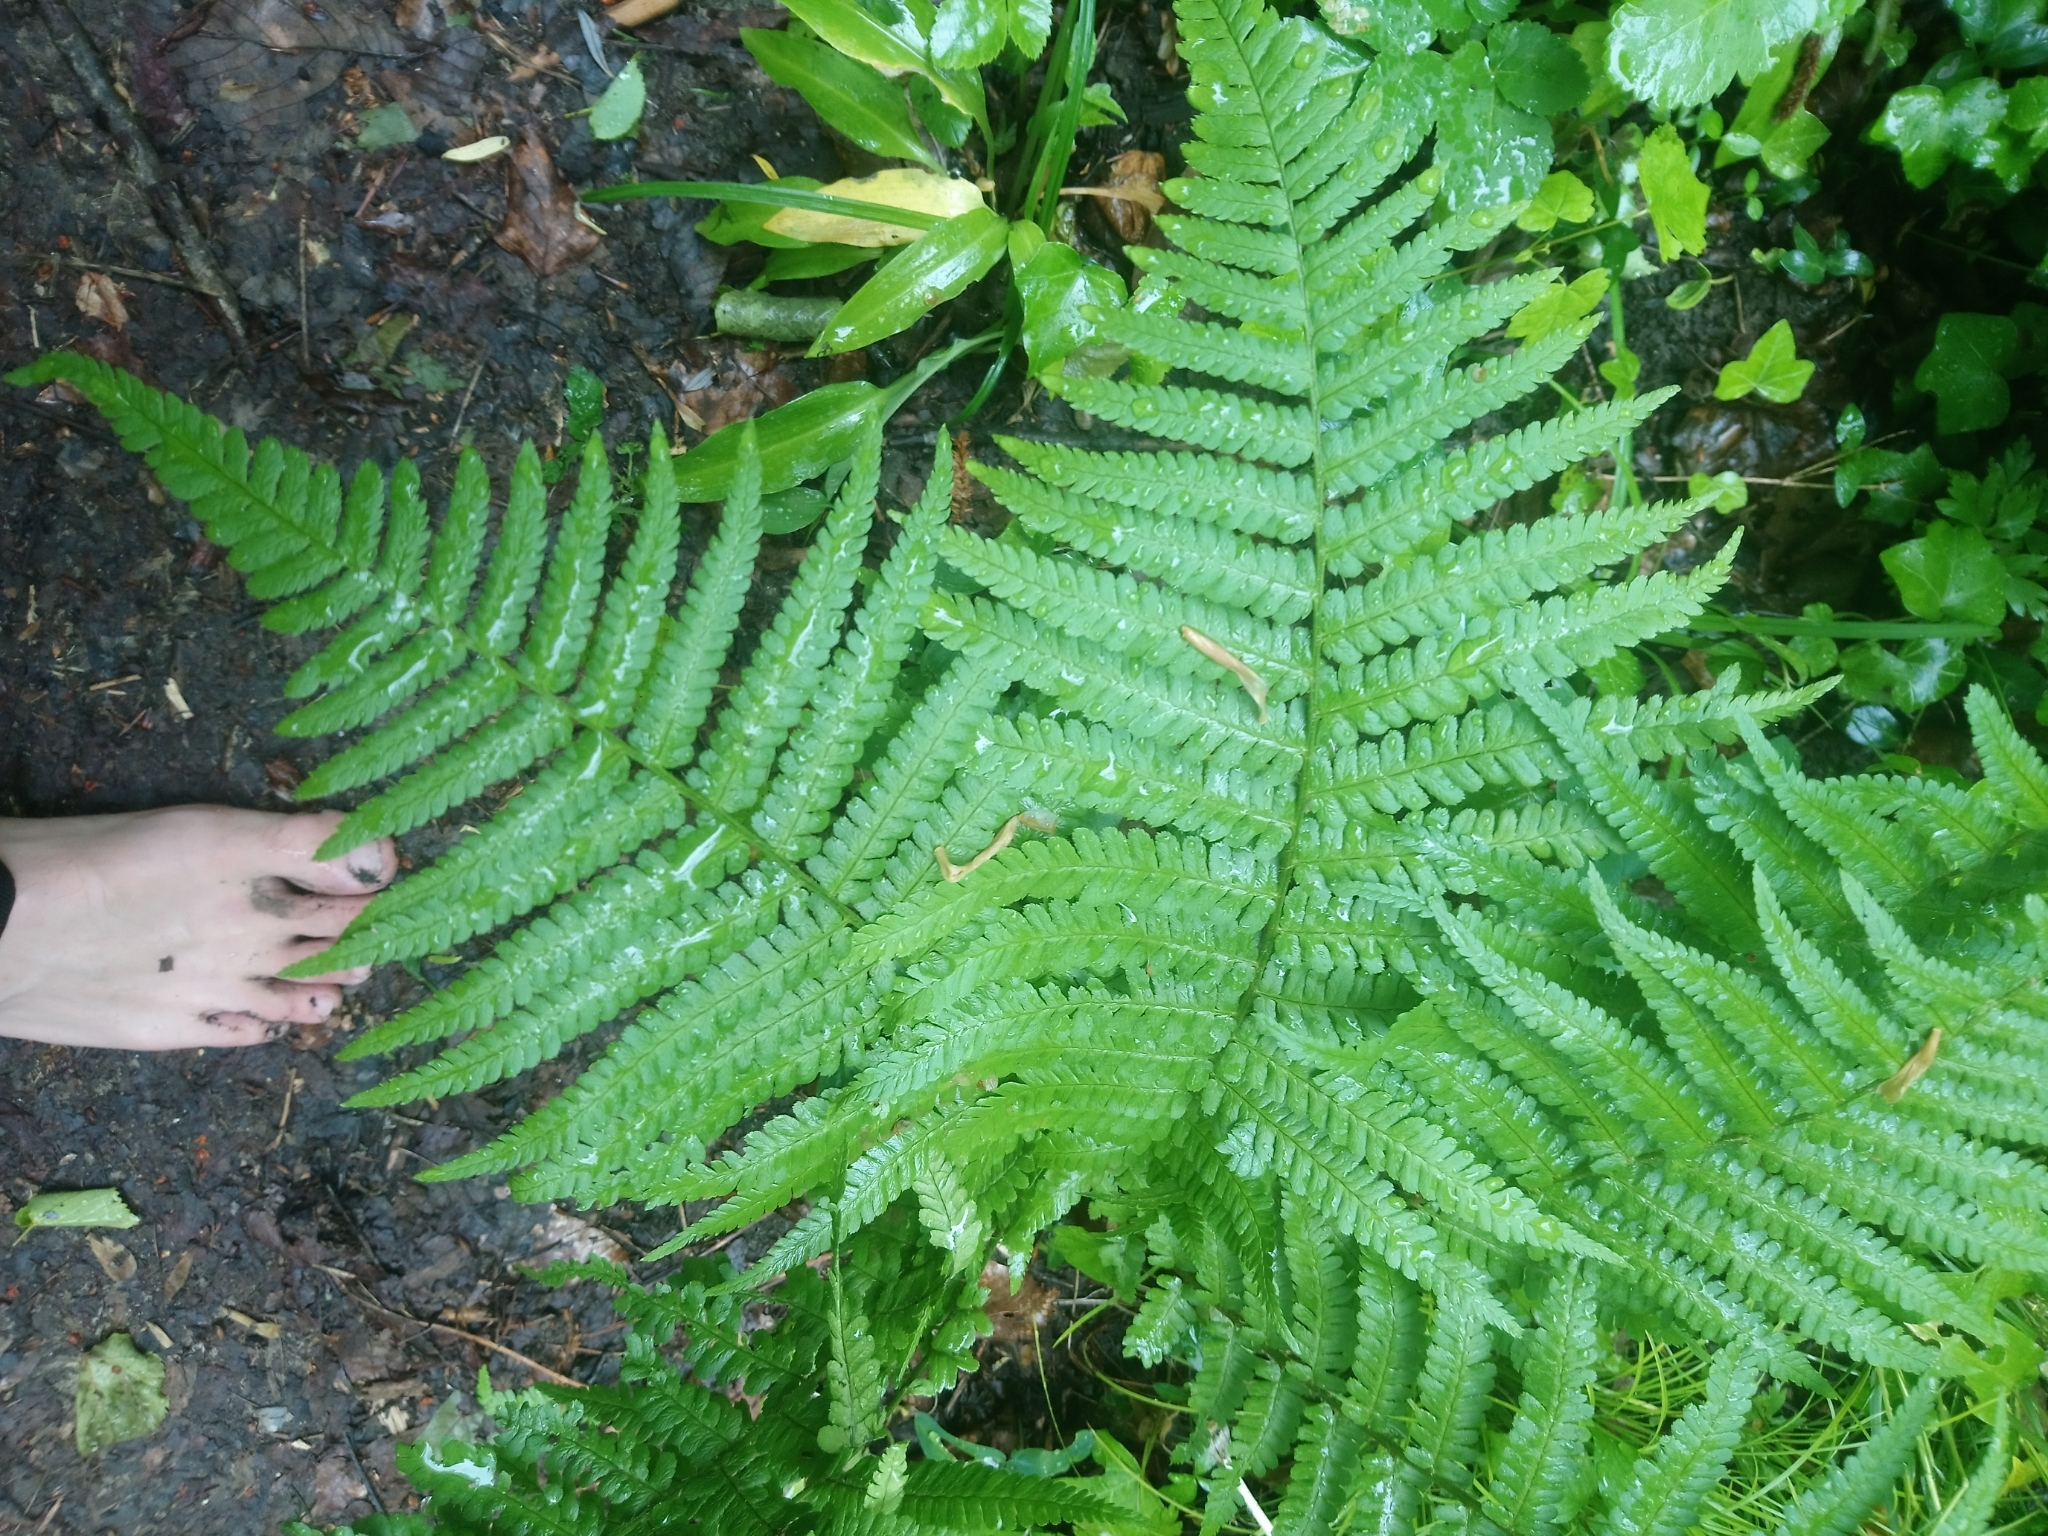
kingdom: Plantae
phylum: Tracheophyta
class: Polypodiopsida
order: Polypodiales
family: Dryopteridaceae
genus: Dryopteris
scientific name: Dryopteris filix-mas
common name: Male fern
